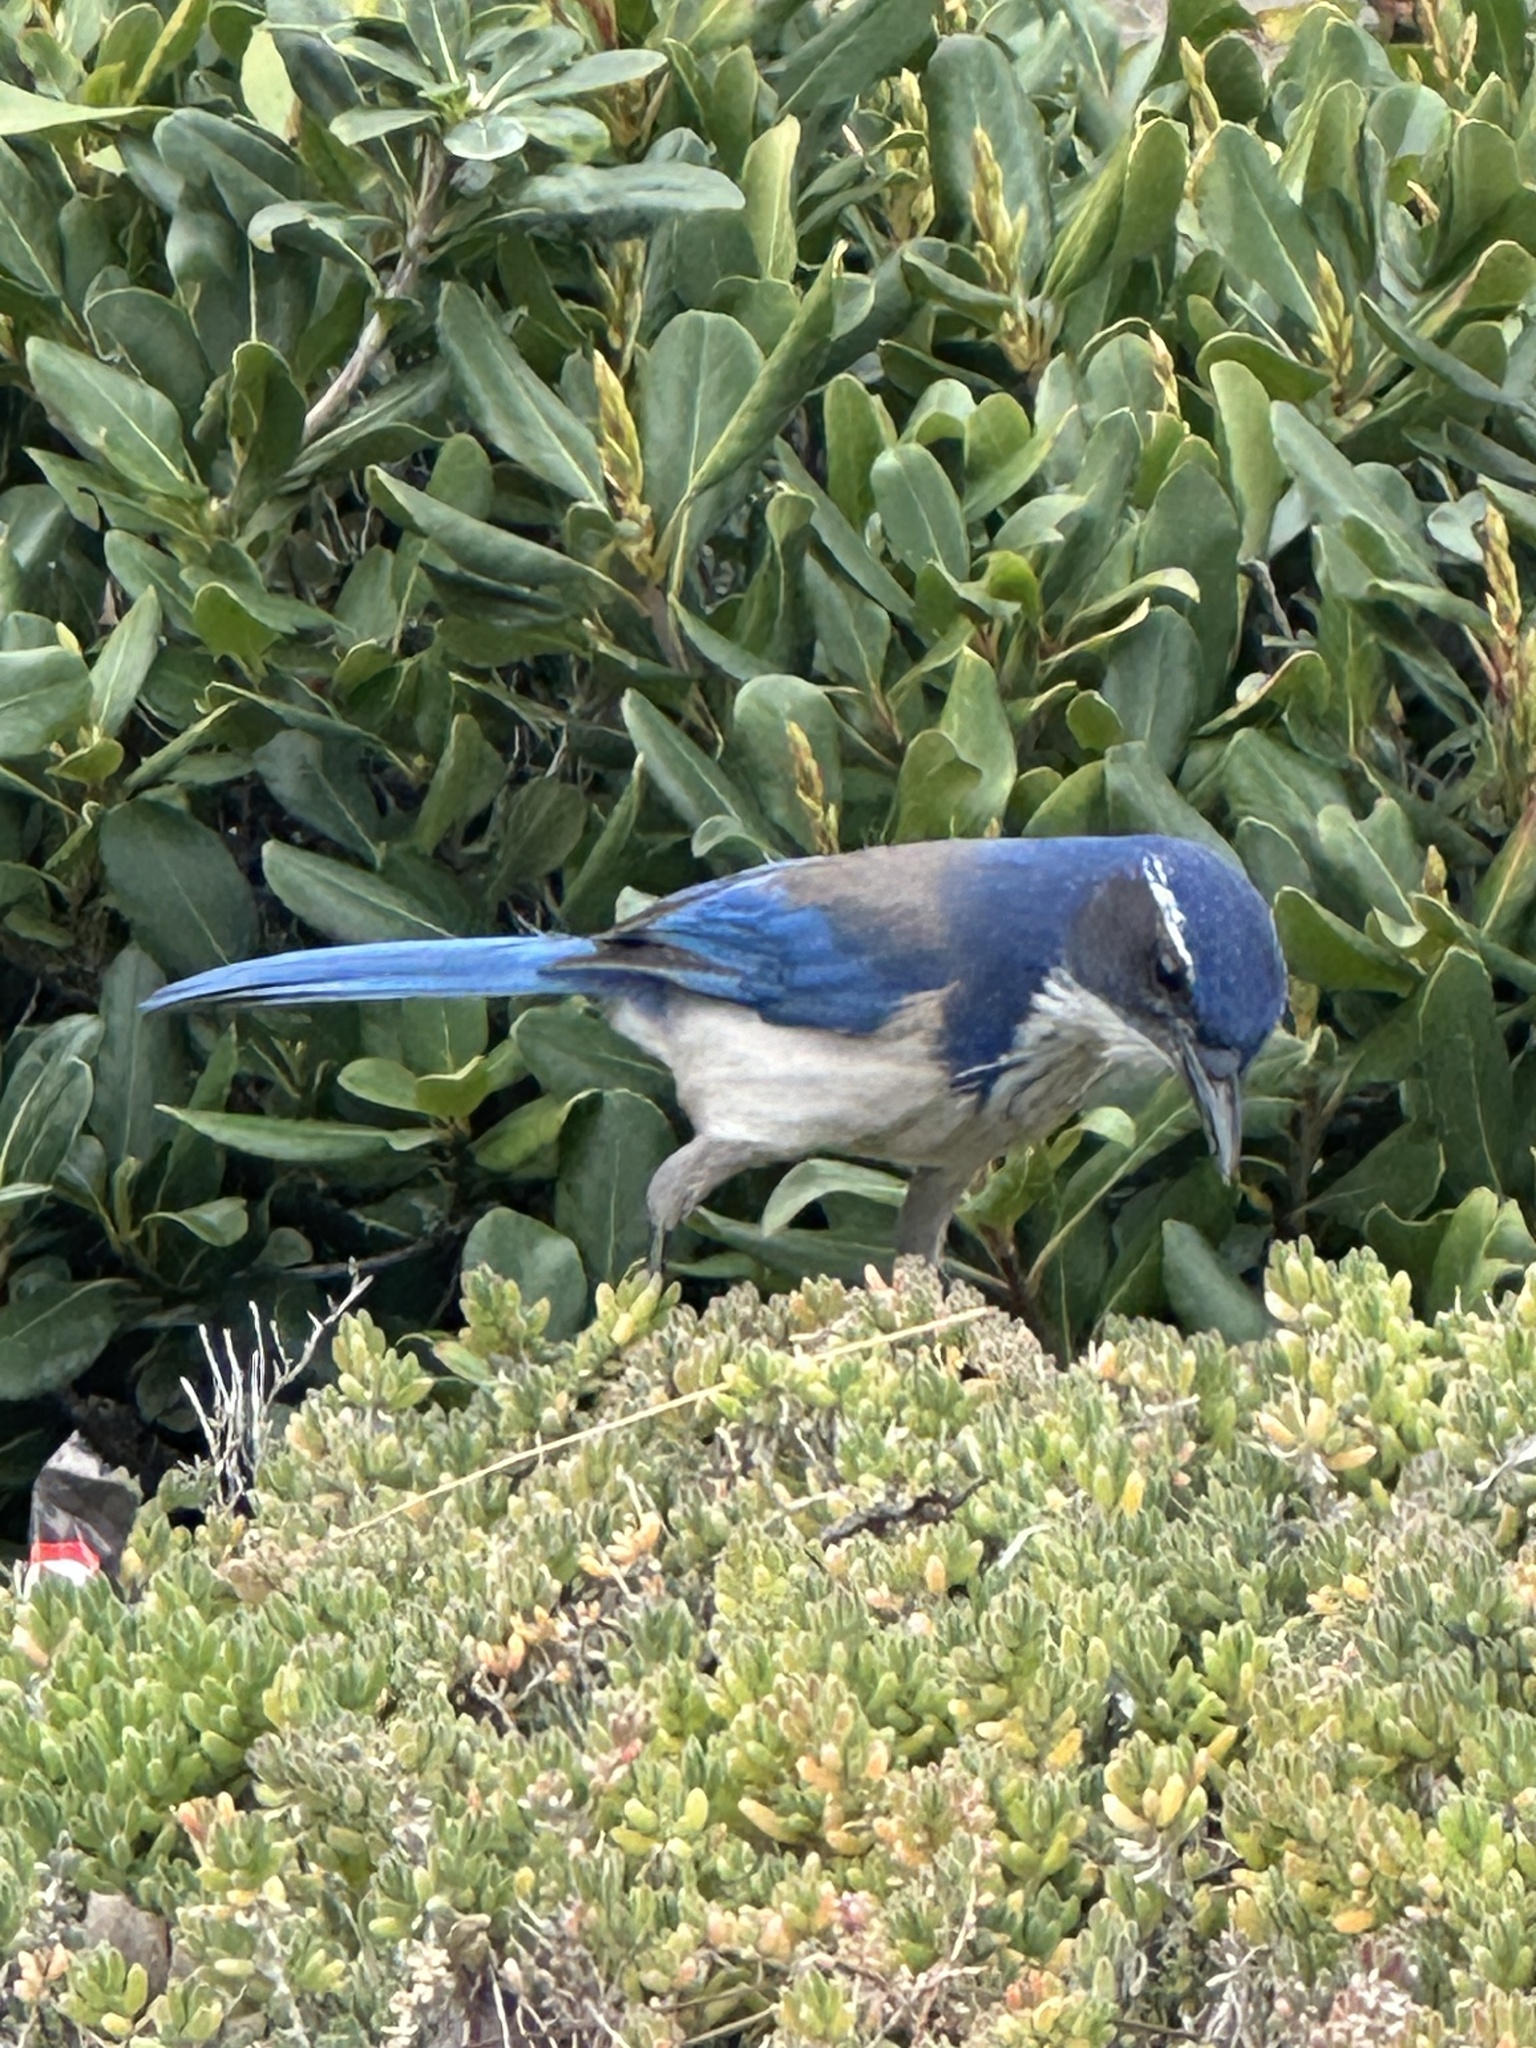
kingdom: Animalia
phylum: Chordata
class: Aves
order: Passeriformes
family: Corvidae
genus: Aphelocoma
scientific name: Aphelocoma californica
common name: California scrub-jay
